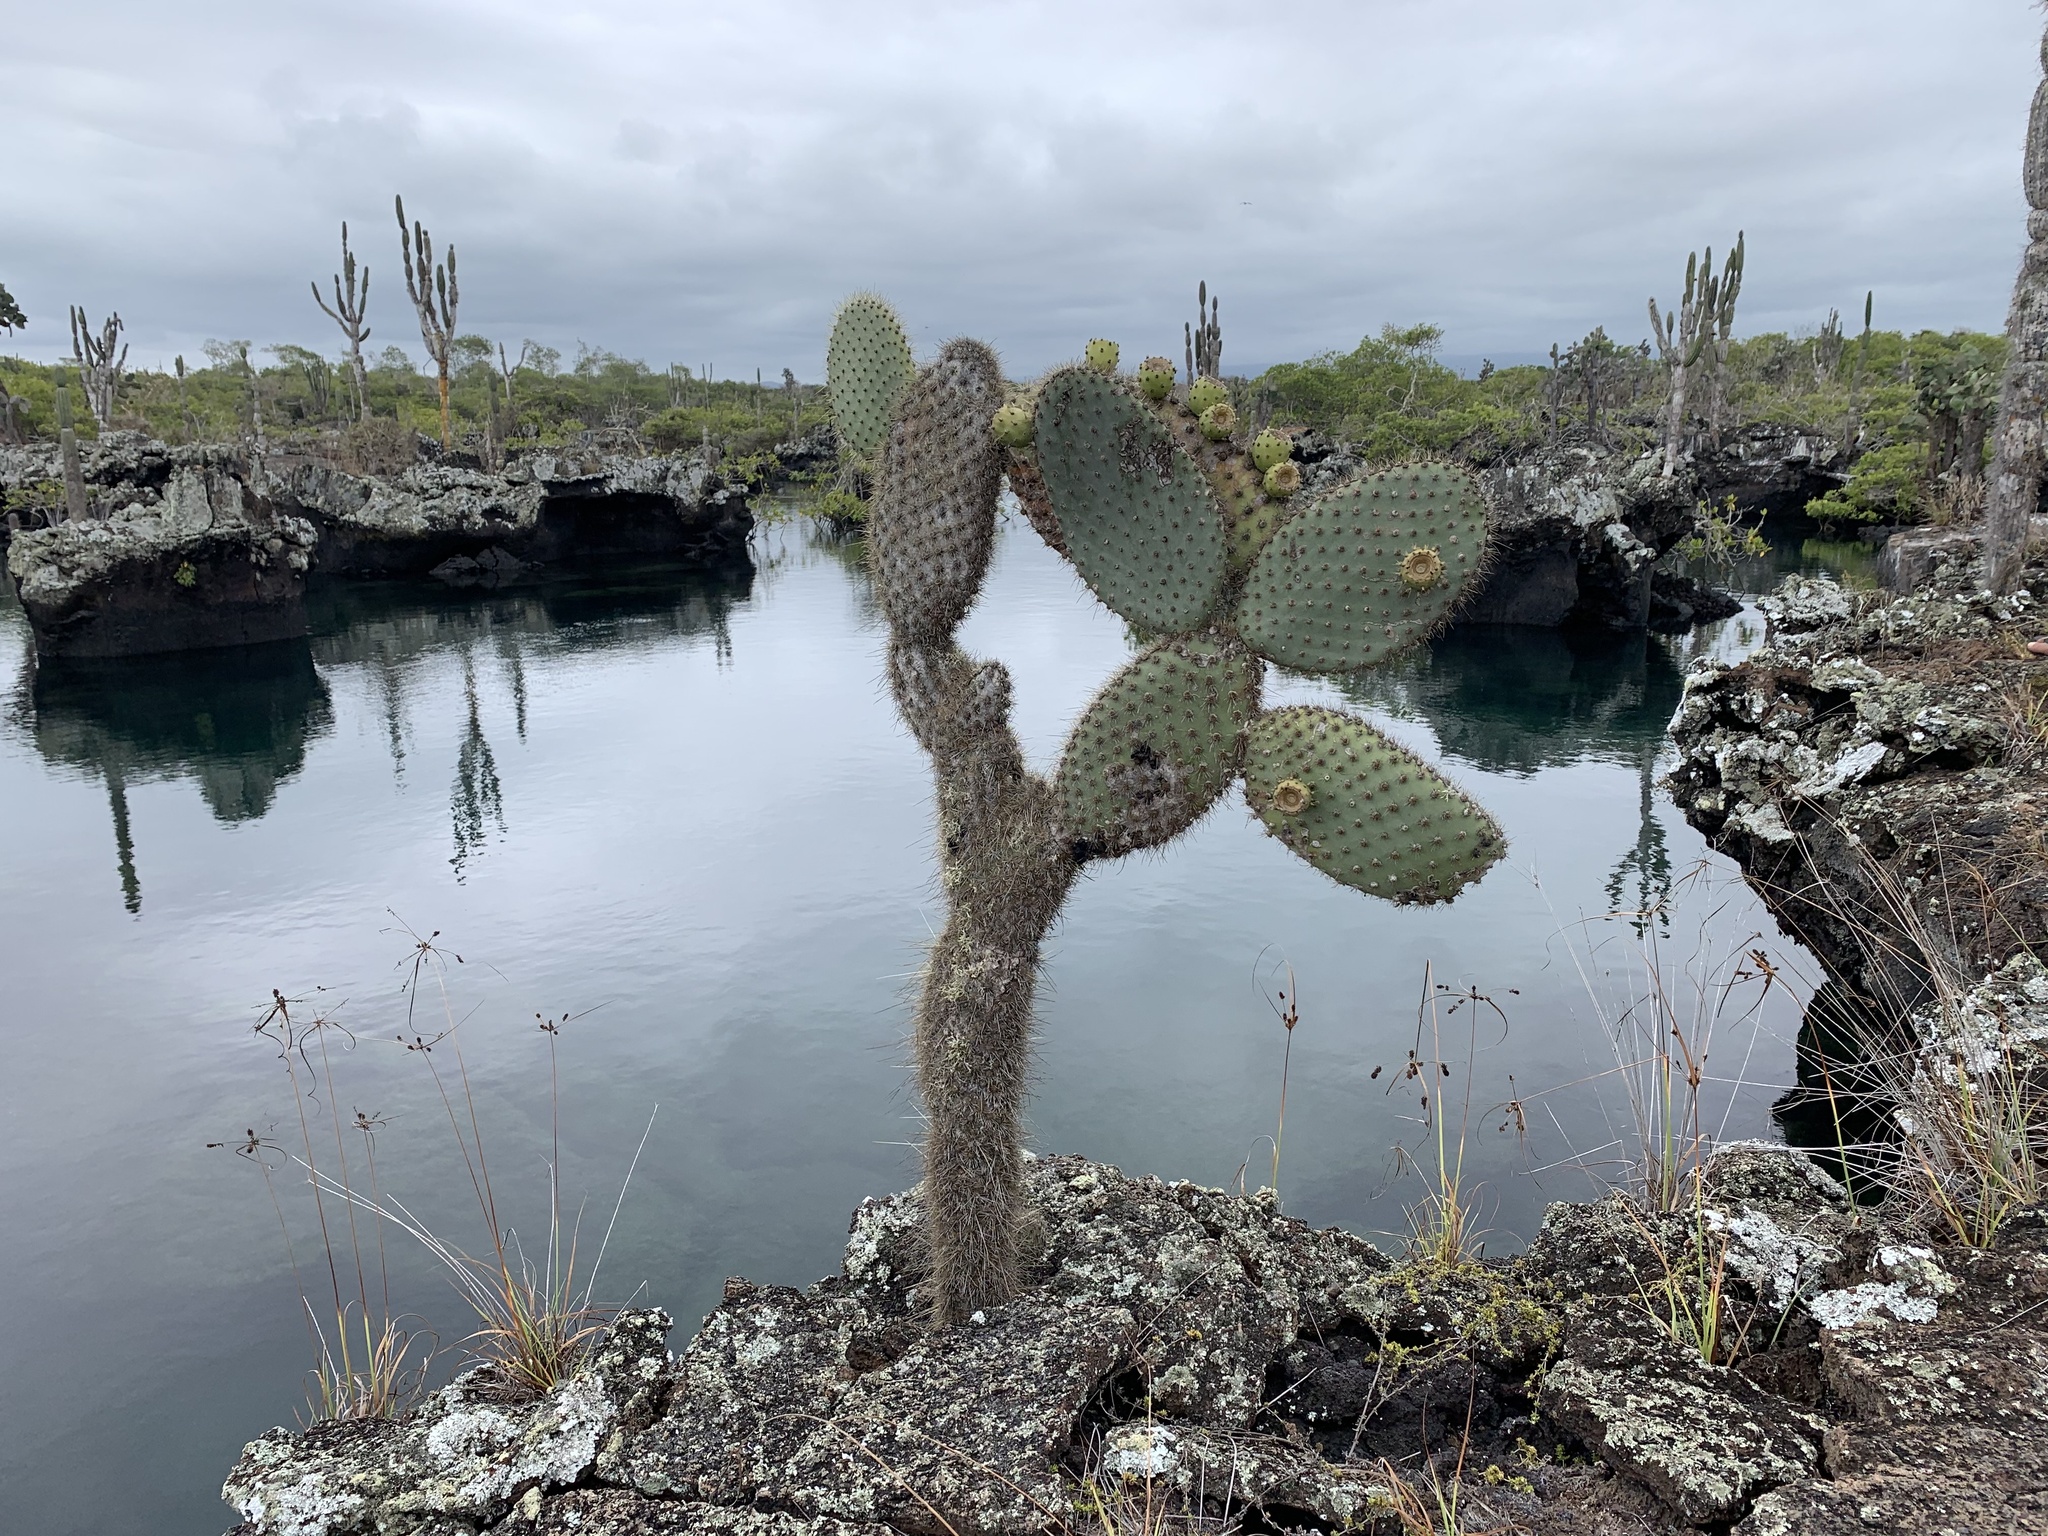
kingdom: Plantae
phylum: Tracheophyta
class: Magnoliopsida
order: Caryophyllales
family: Cactaceae
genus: Opuntia
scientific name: Opuntia galapageia
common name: Galápagos prickly pear
